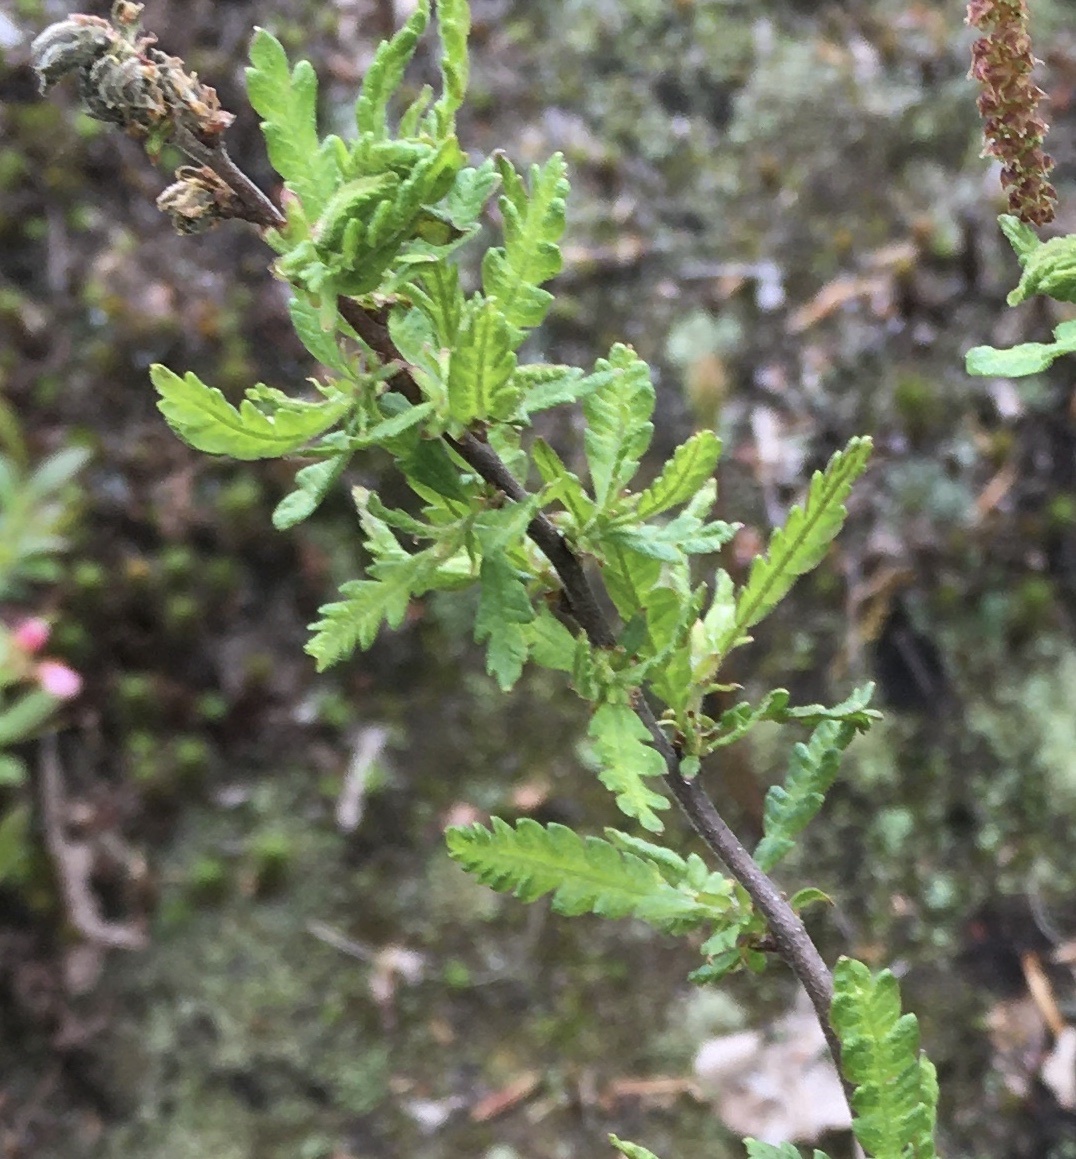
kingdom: Plantae
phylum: Tracheophyta
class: Magnoliopsida
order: Fagales
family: Myricaceae
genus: Comptonia
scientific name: Comptonia peregrina
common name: Sweet-fern
